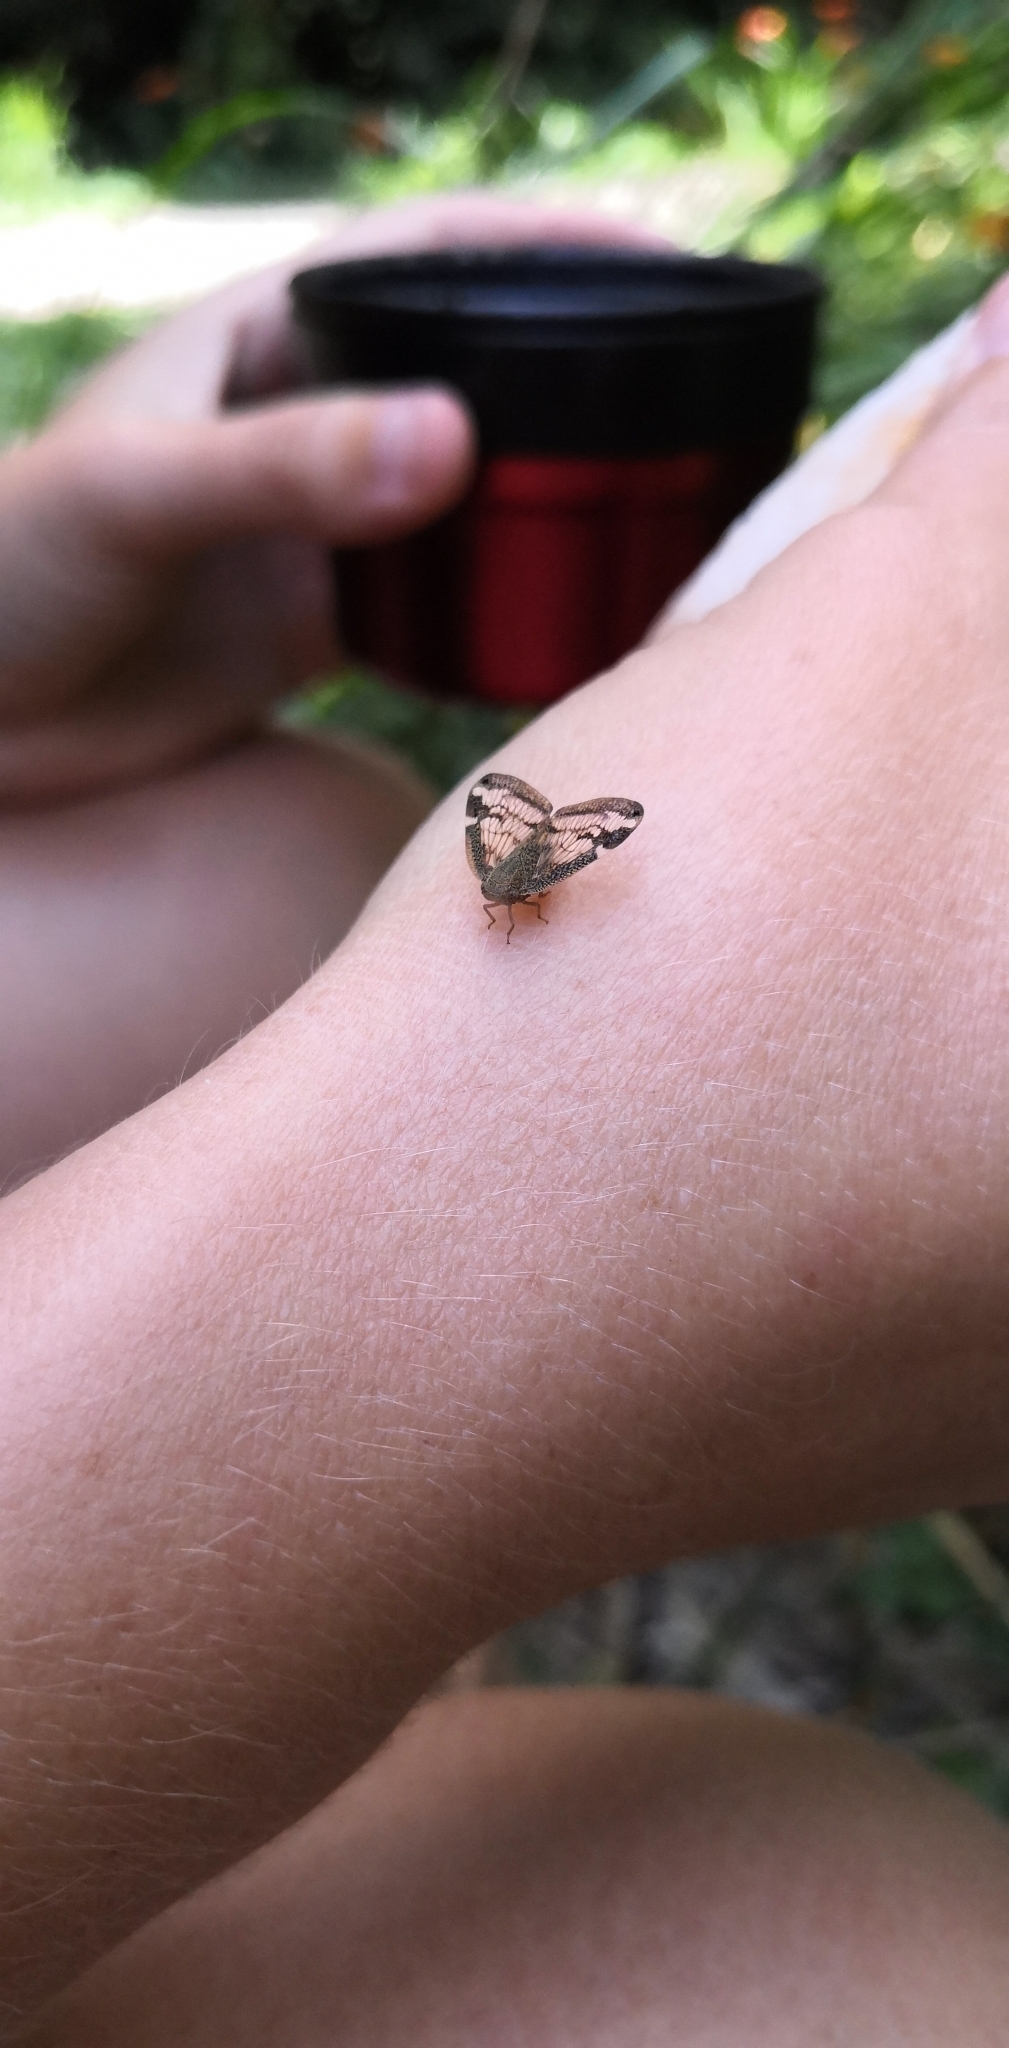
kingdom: Animalia
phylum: Arthropoda
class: Insecta
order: Hemiptera
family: Ricaniidae
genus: Scolypopa
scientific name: Scolypopa australis
